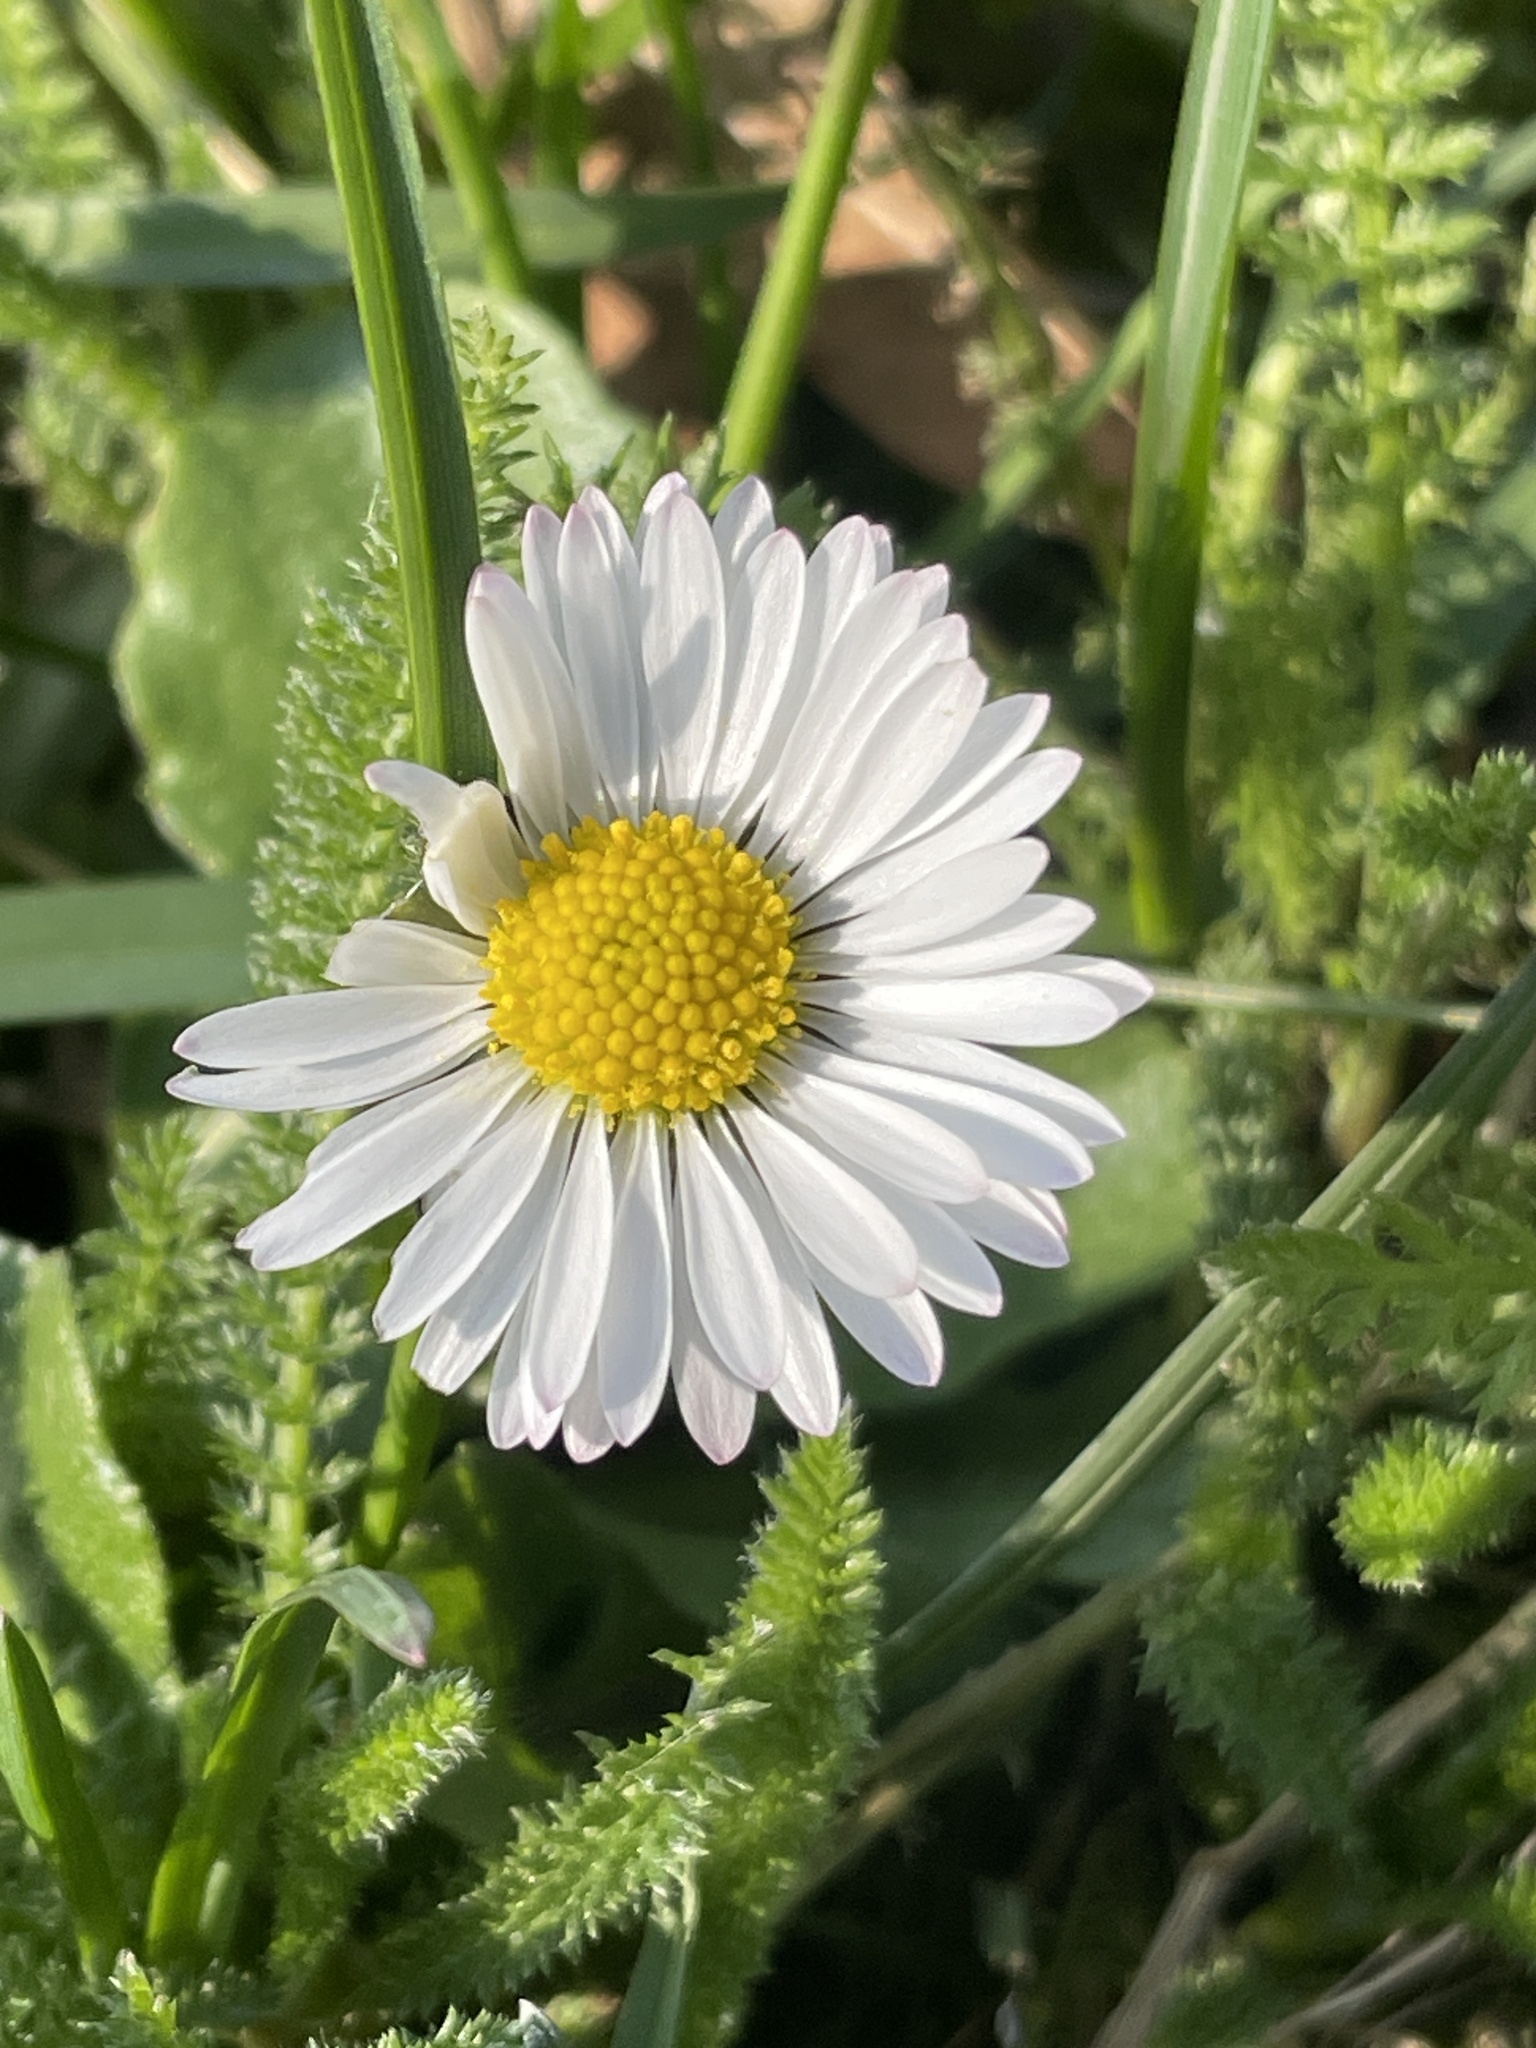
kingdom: Plantae
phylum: Tracheophyta
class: Magnoliopsida
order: Asterales
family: Asteraceae
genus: Bellis
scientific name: Bellis perennis
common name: Lawndaisy
